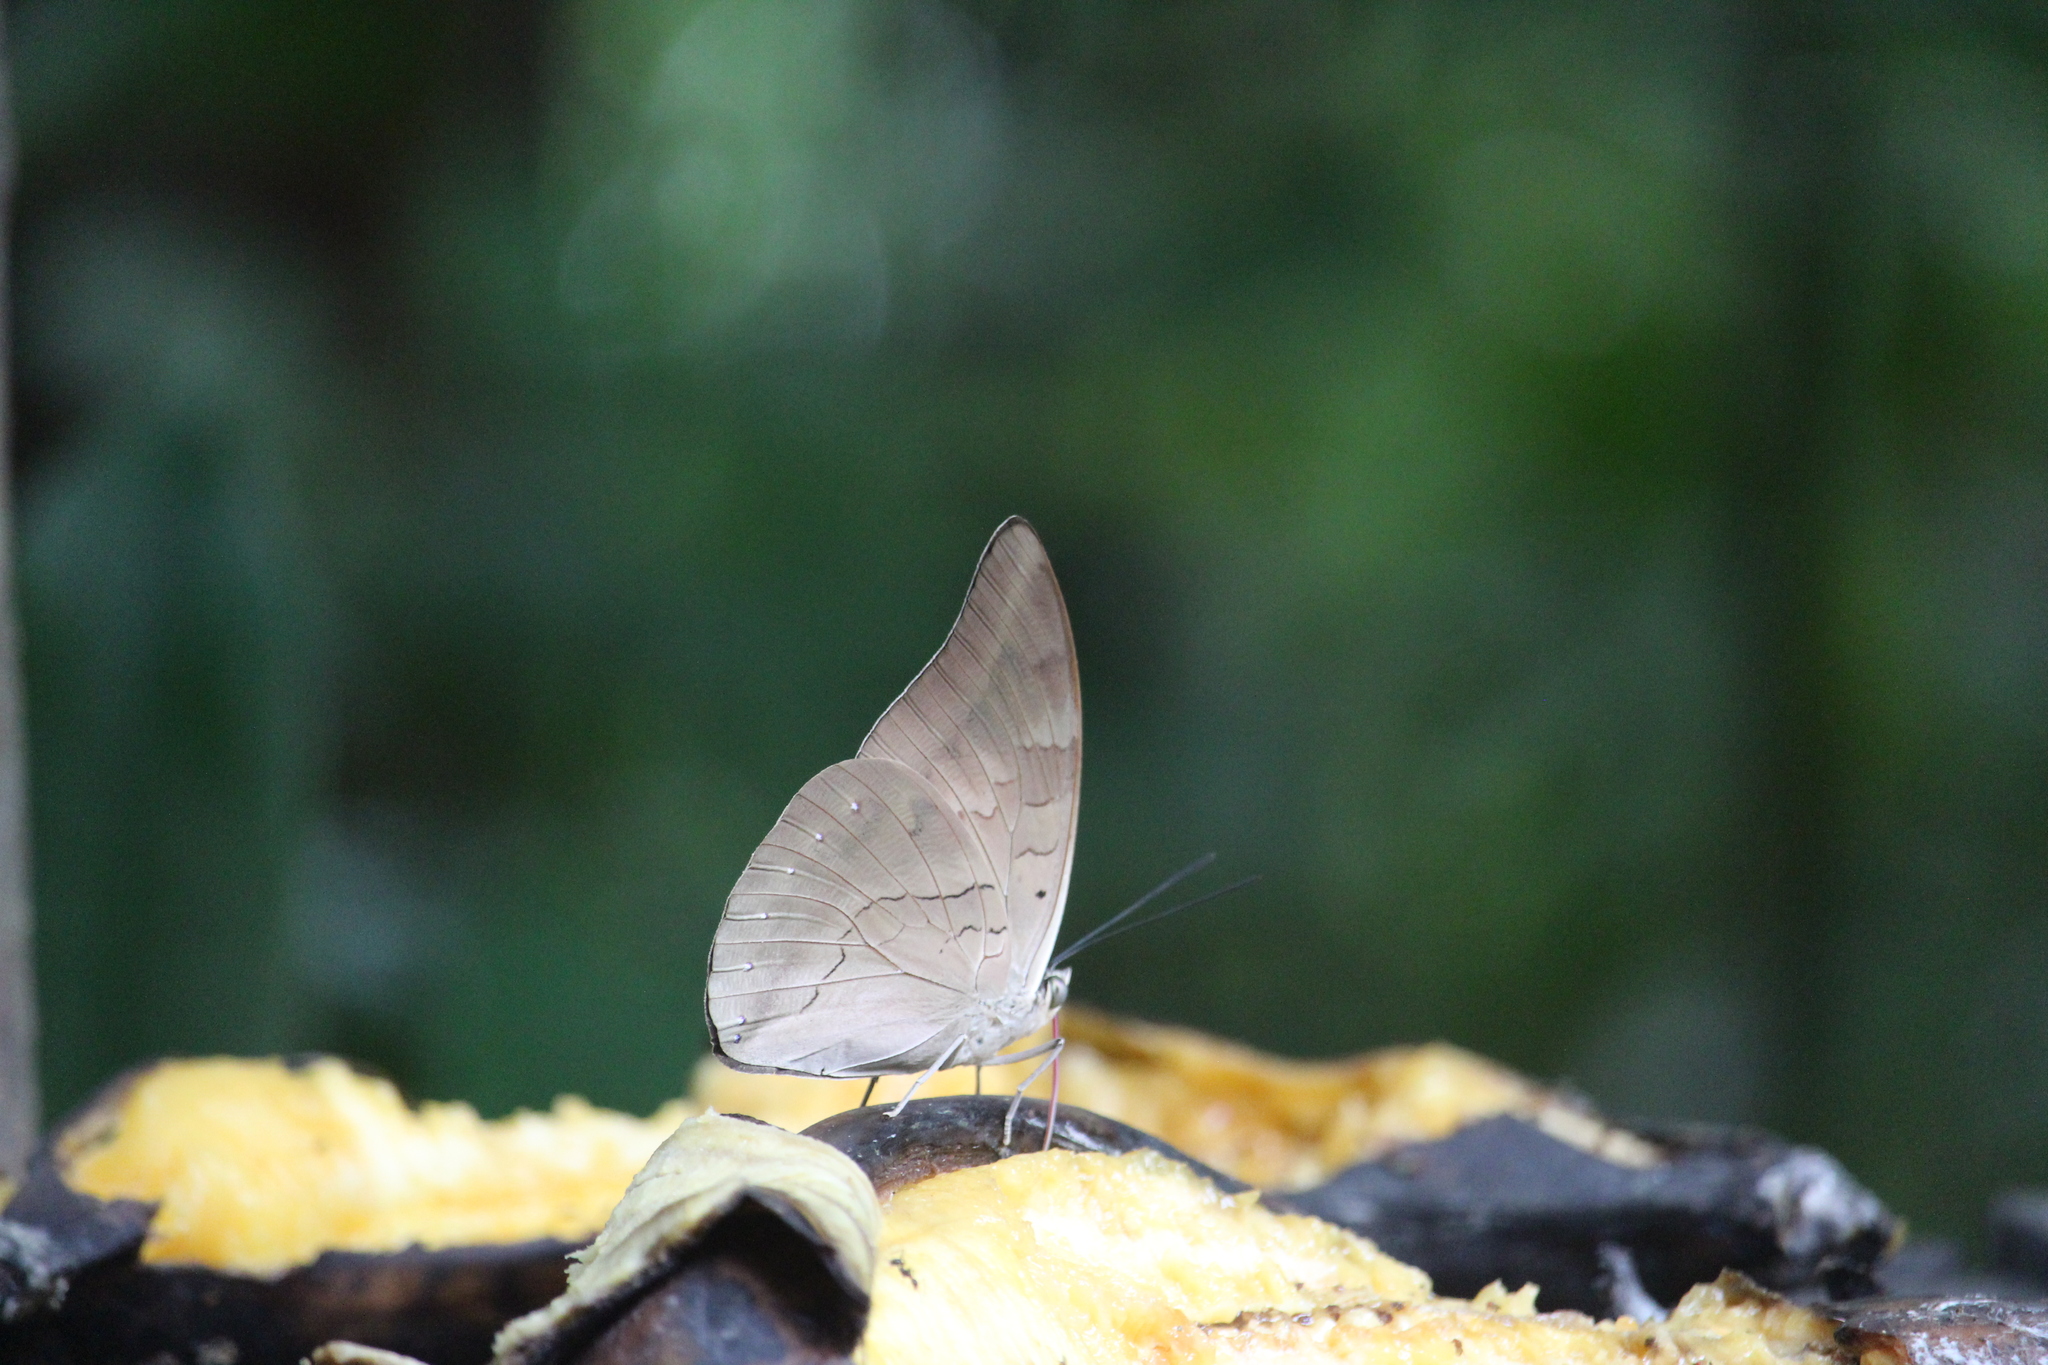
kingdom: Animalia
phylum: Arthropoda
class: Insecta
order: Lepidoptera
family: Nymphalidae
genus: Prepona
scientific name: Prepona demophon
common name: One-spotted prepona
